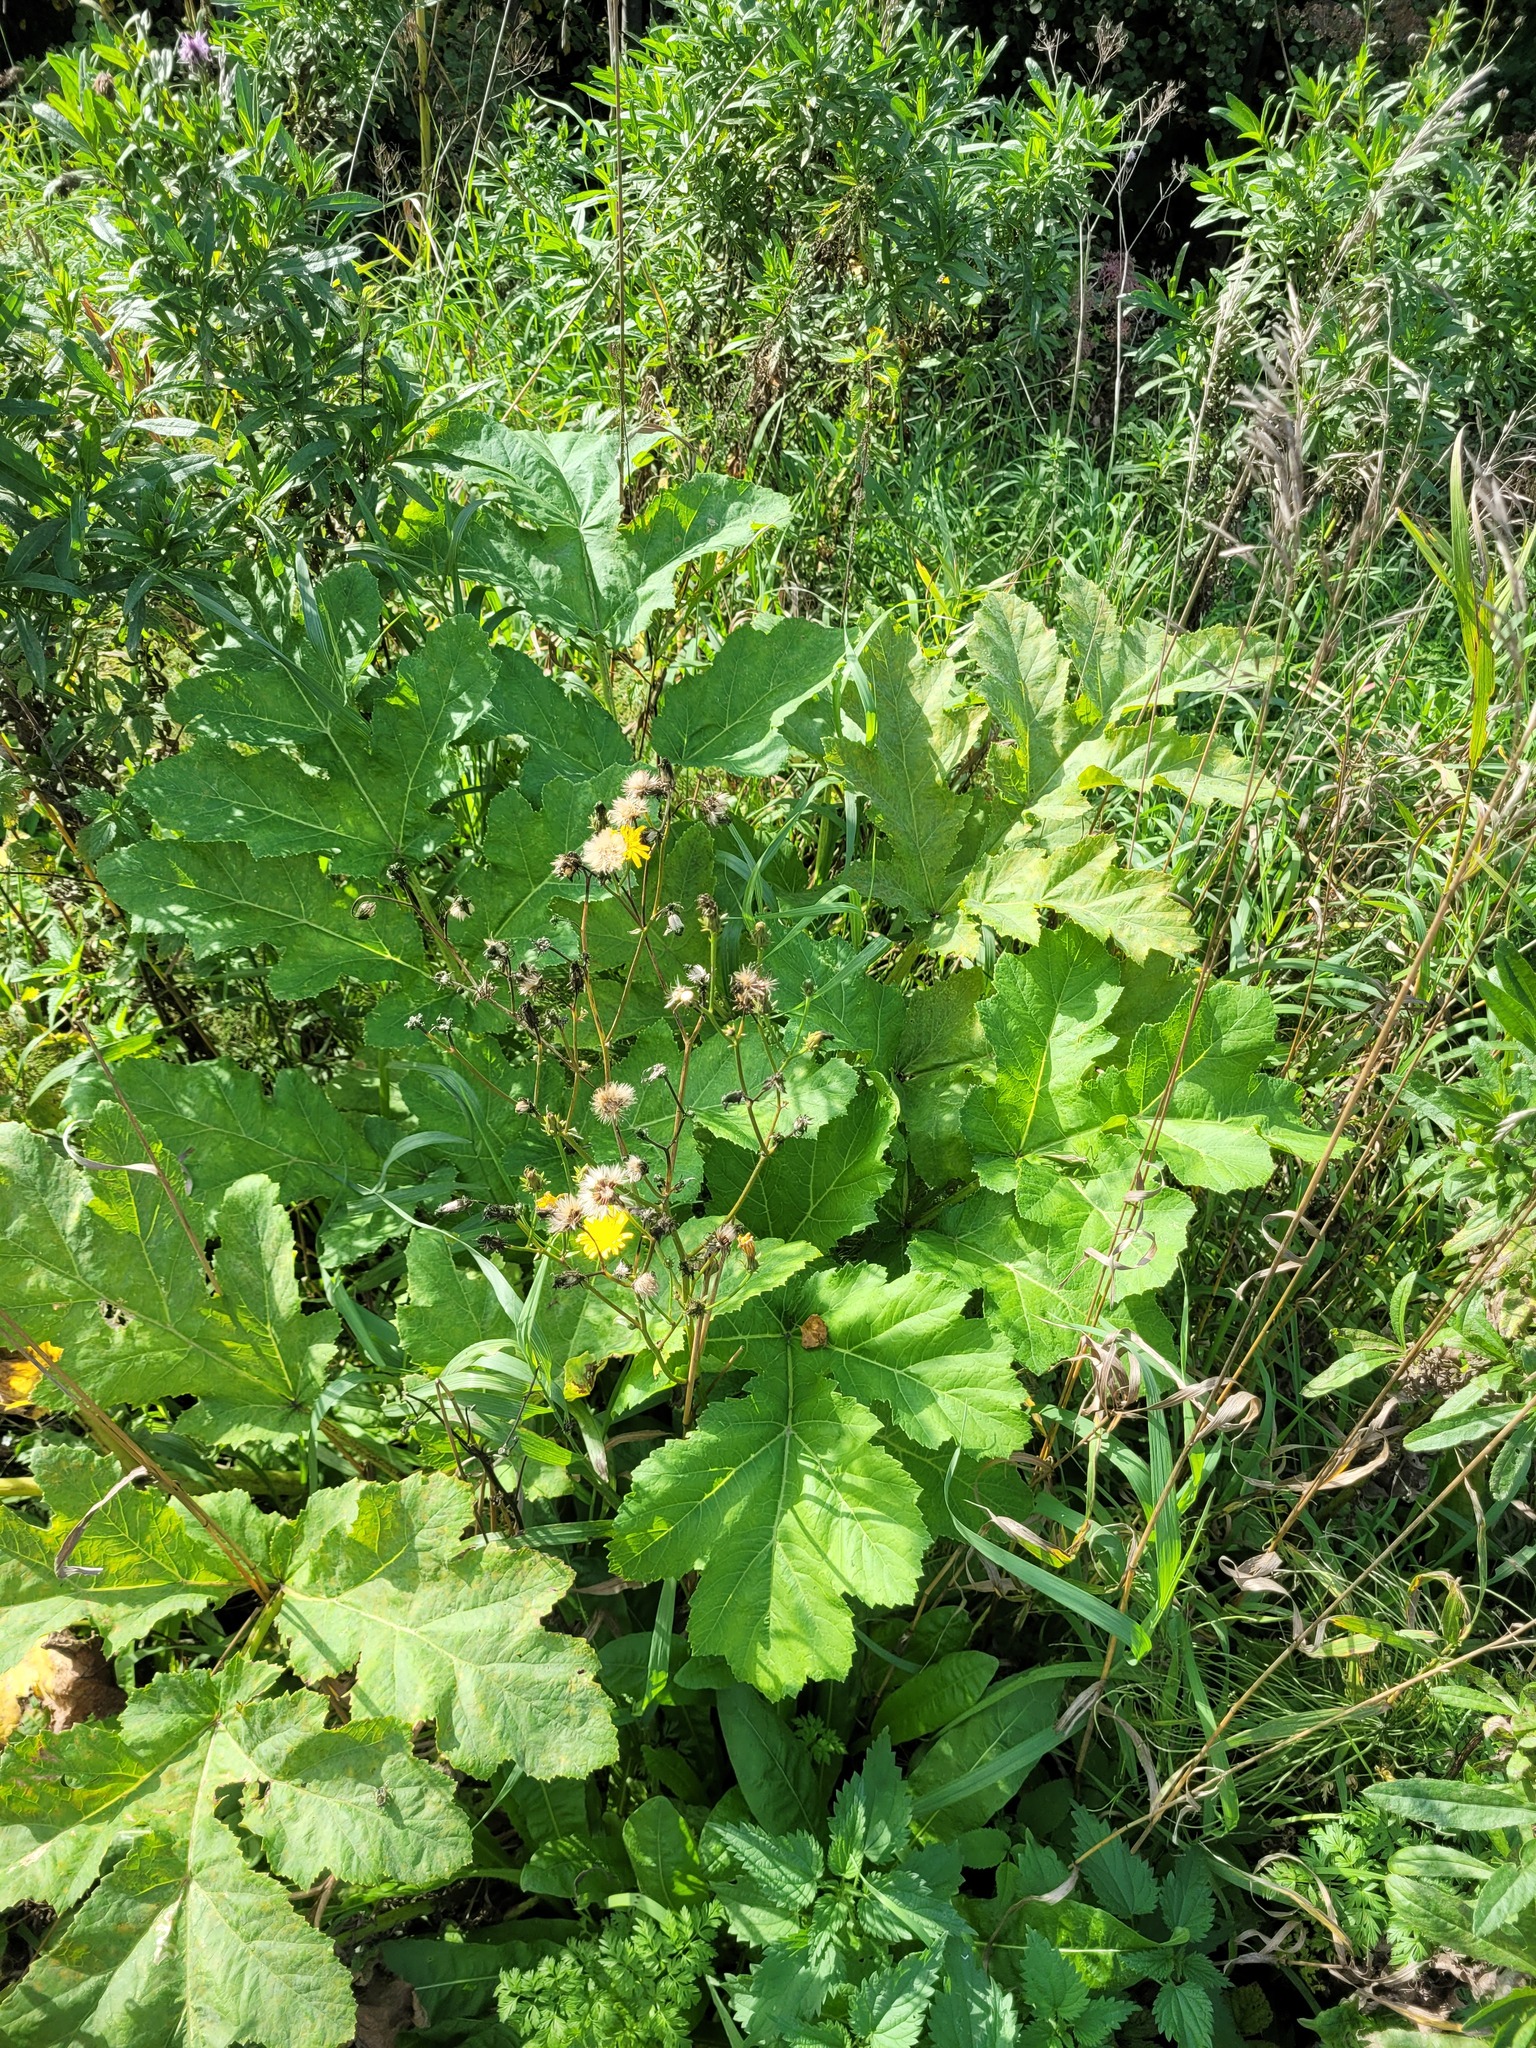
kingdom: Plantae
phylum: Tracheophyta
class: Magnoliopsida
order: Apiales
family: Apiaceae
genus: Heracleum
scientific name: Heracleum sosnowskyi
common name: Sosnowsky's hogweed
